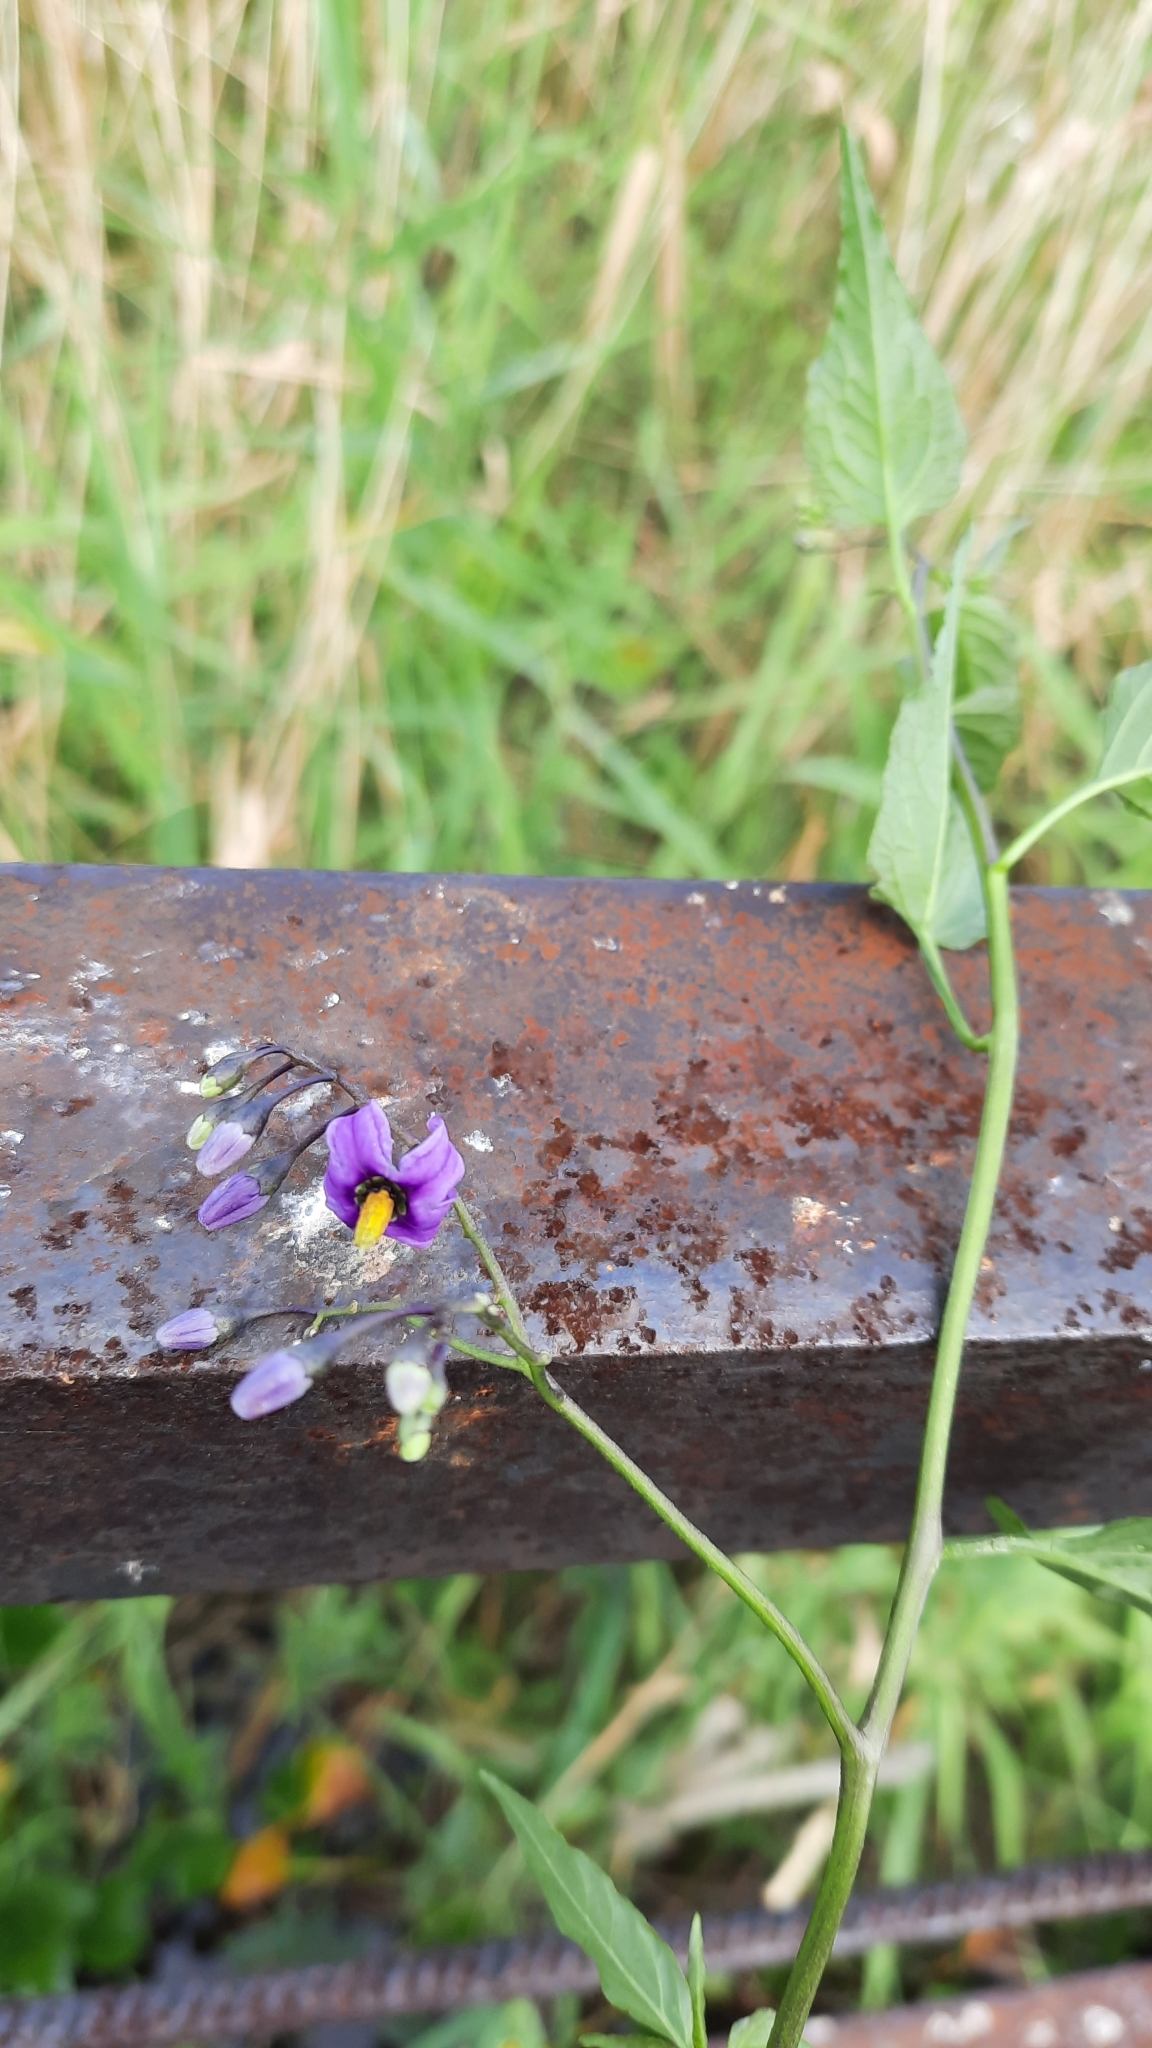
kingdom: Plantae
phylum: Tracheophyta
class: Magnoliopsida
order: Solanales
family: Solanaceae
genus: Solanum
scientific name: Solanum dulcamara
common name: Climbing nightshade
